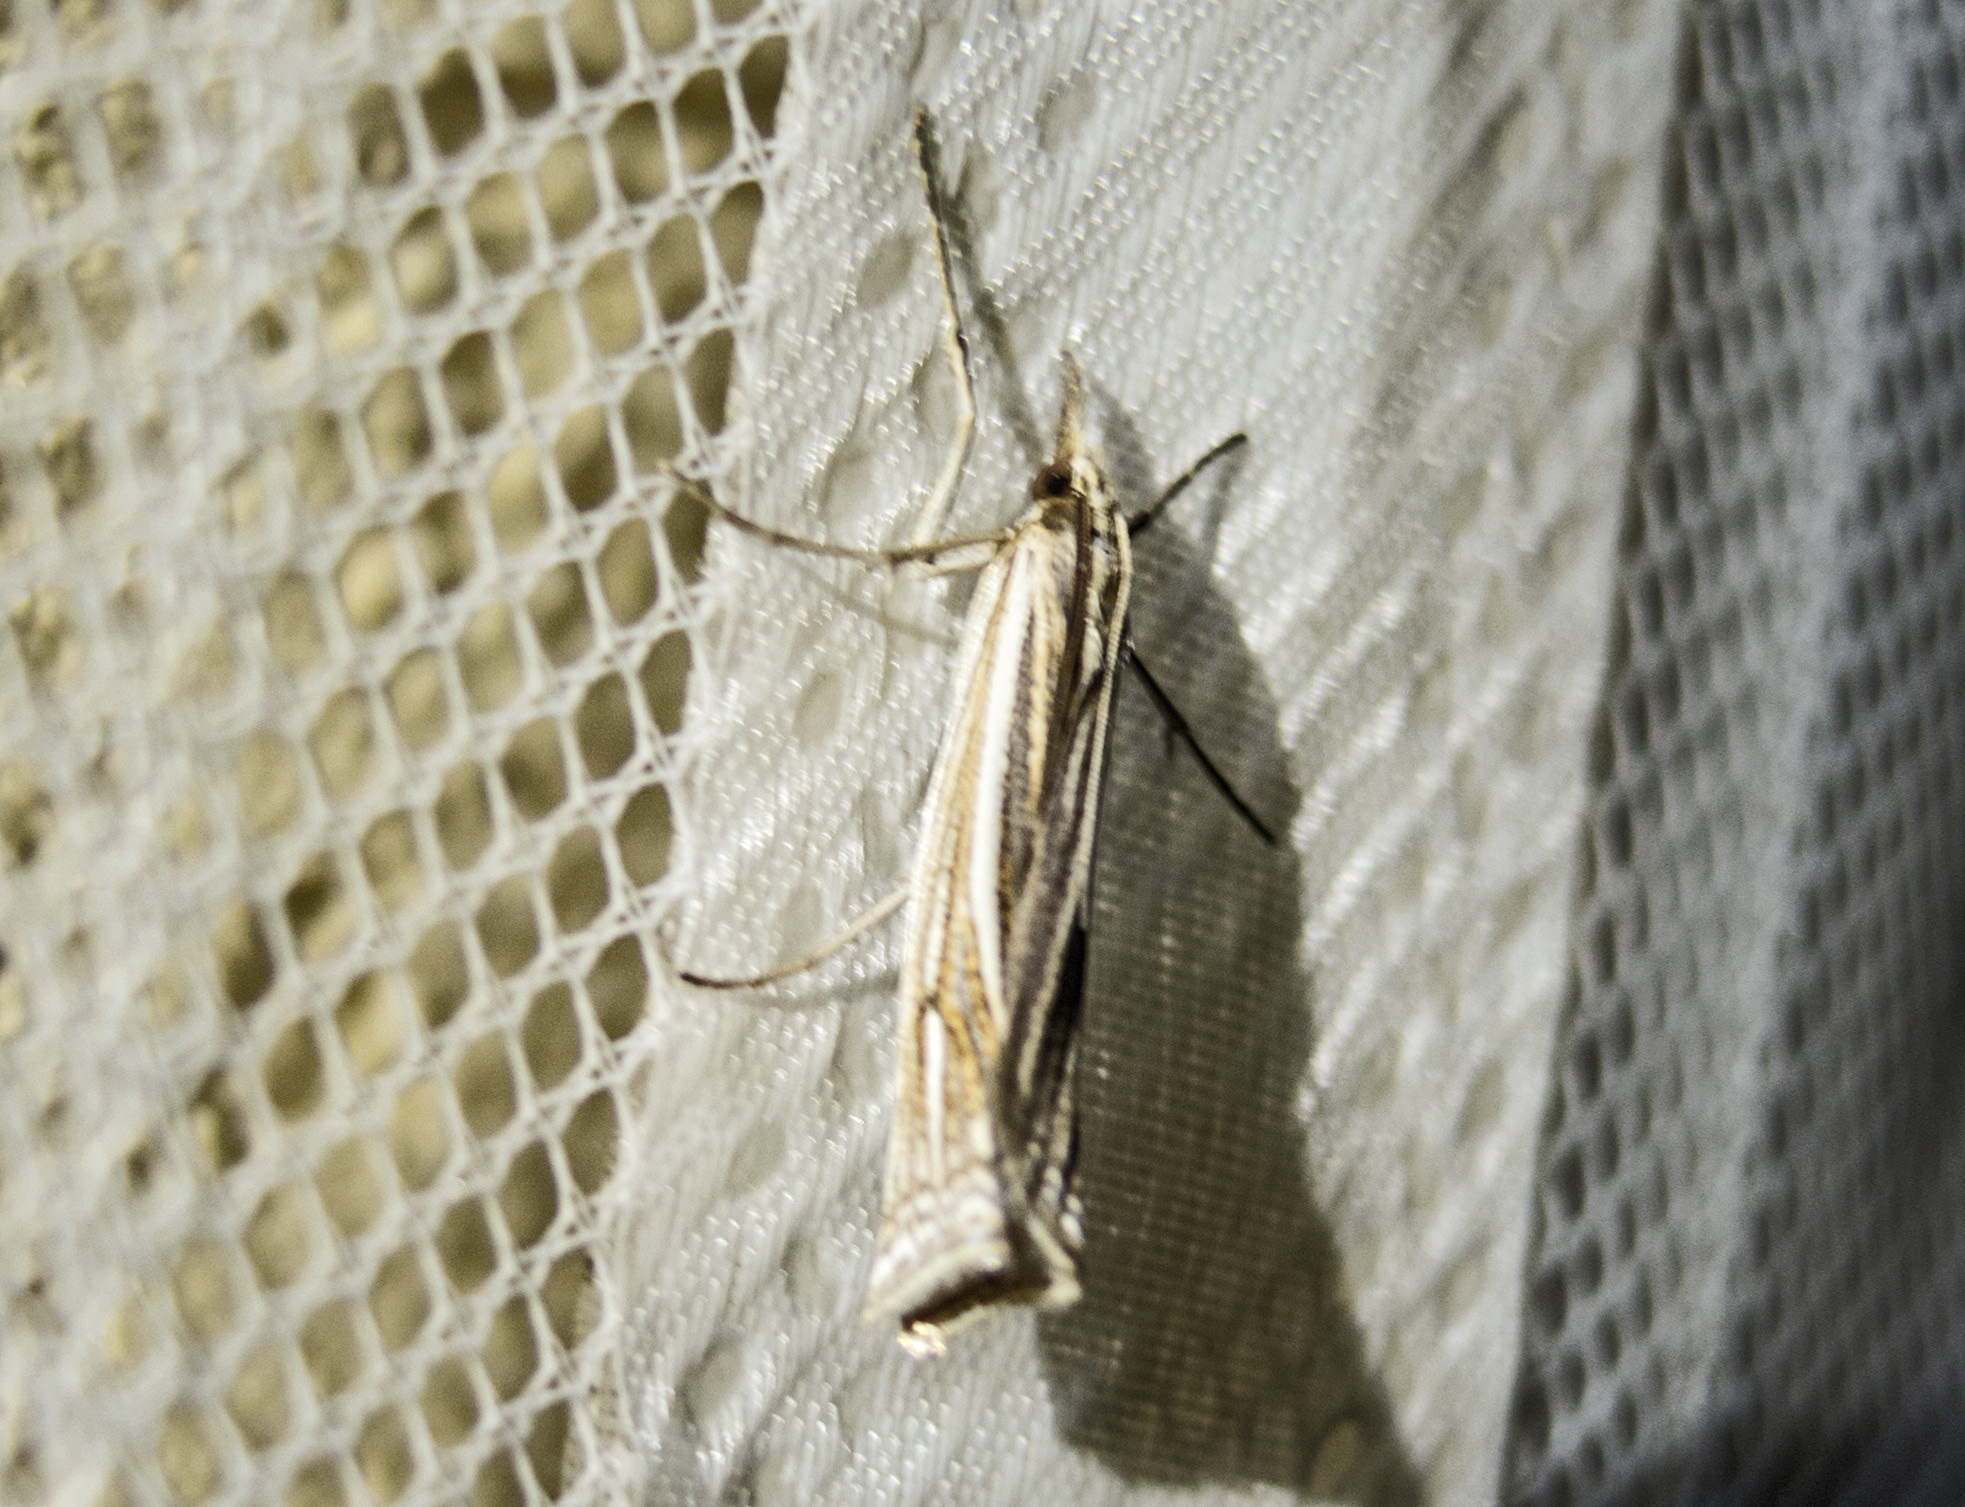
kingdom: Animalia
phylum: Arthropoda
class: Insecta
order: Lepidoptera
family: Crambidae
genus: Ancylolomia
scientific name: Ancylolomia palpella
